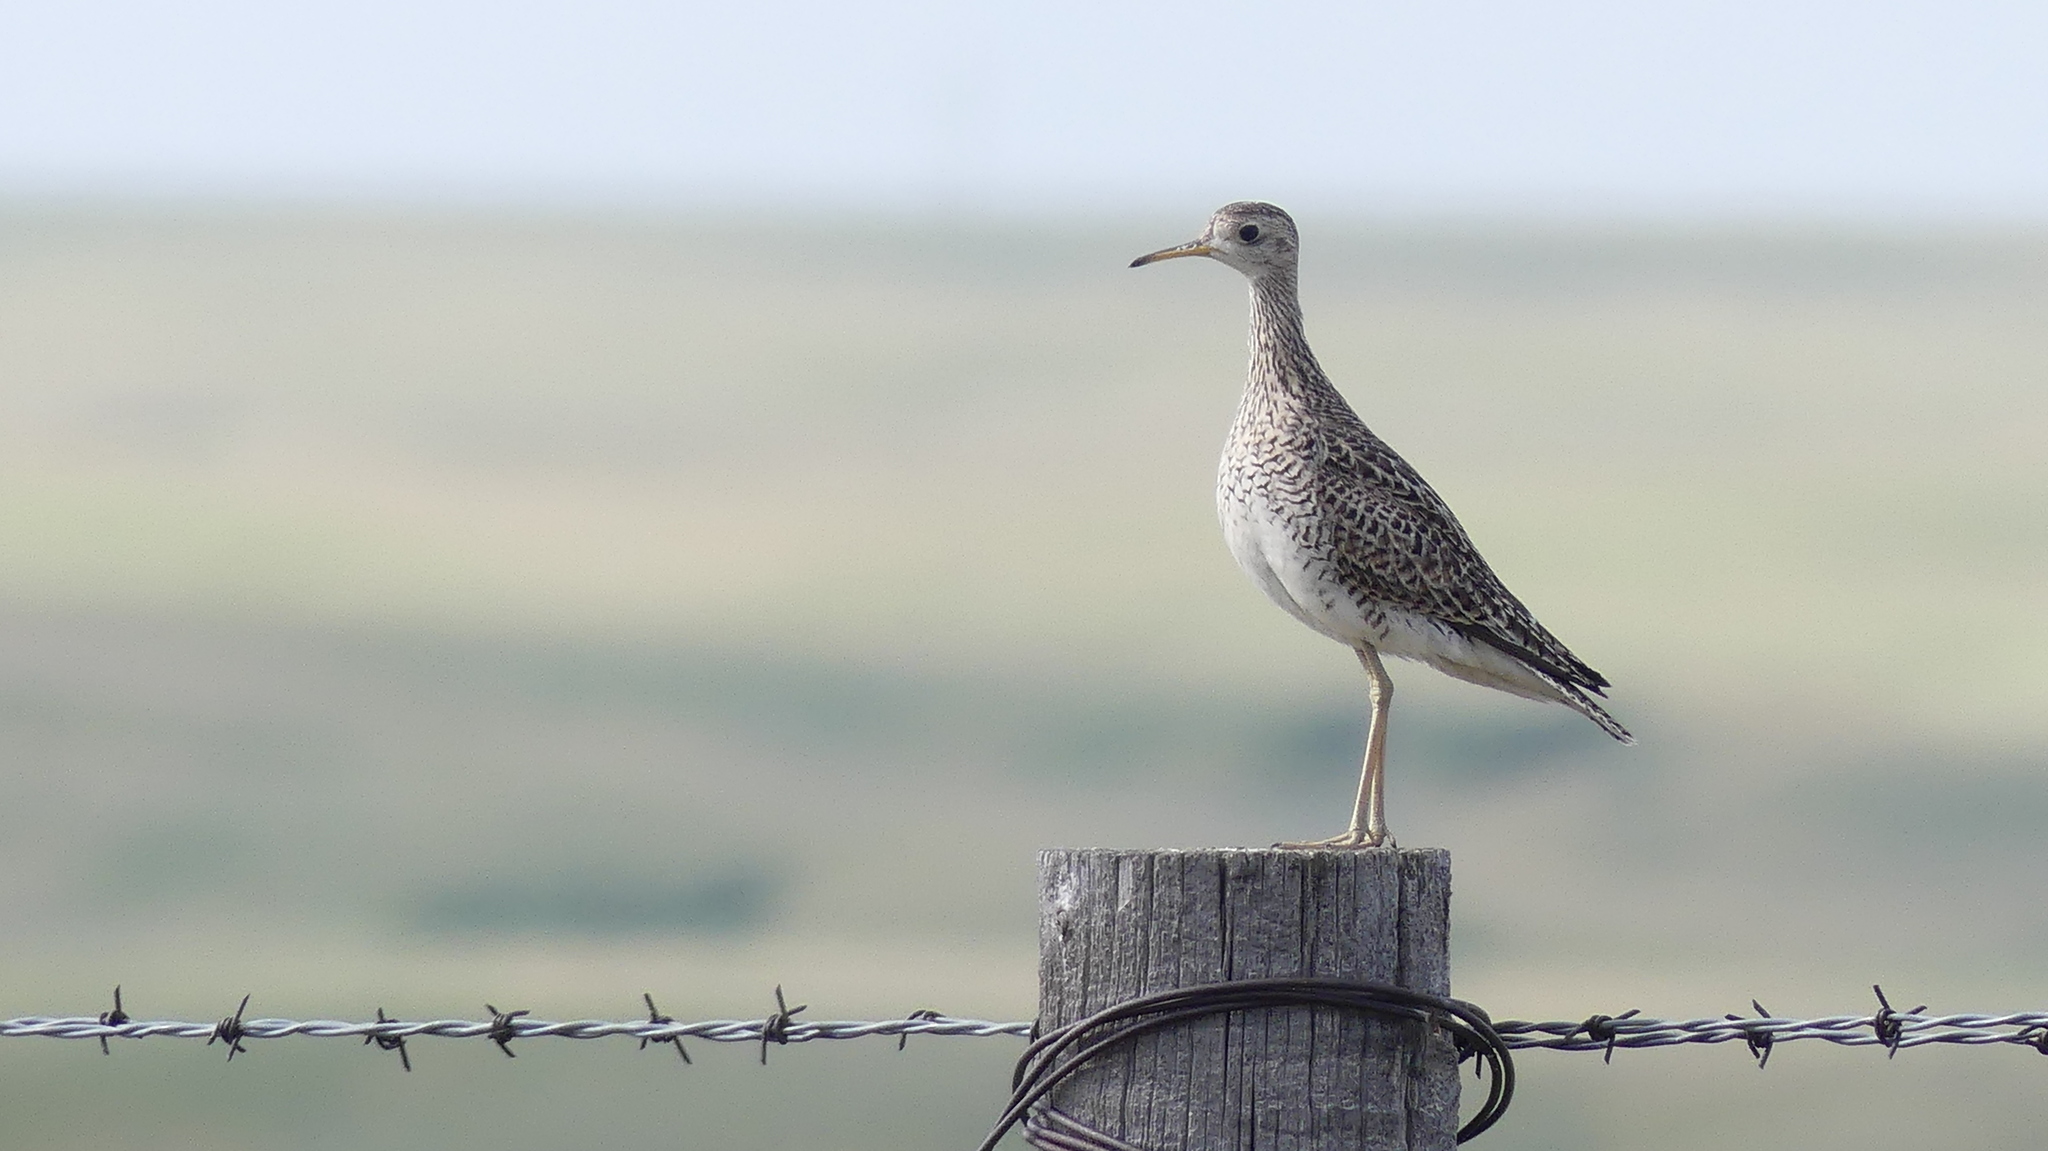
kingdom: Animalia
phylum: Chordata
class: Aves
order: Charadriiformes
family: Scolopacidae
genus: Bartramia
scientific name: Bartramia longicauda
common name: Upland sandpiper
